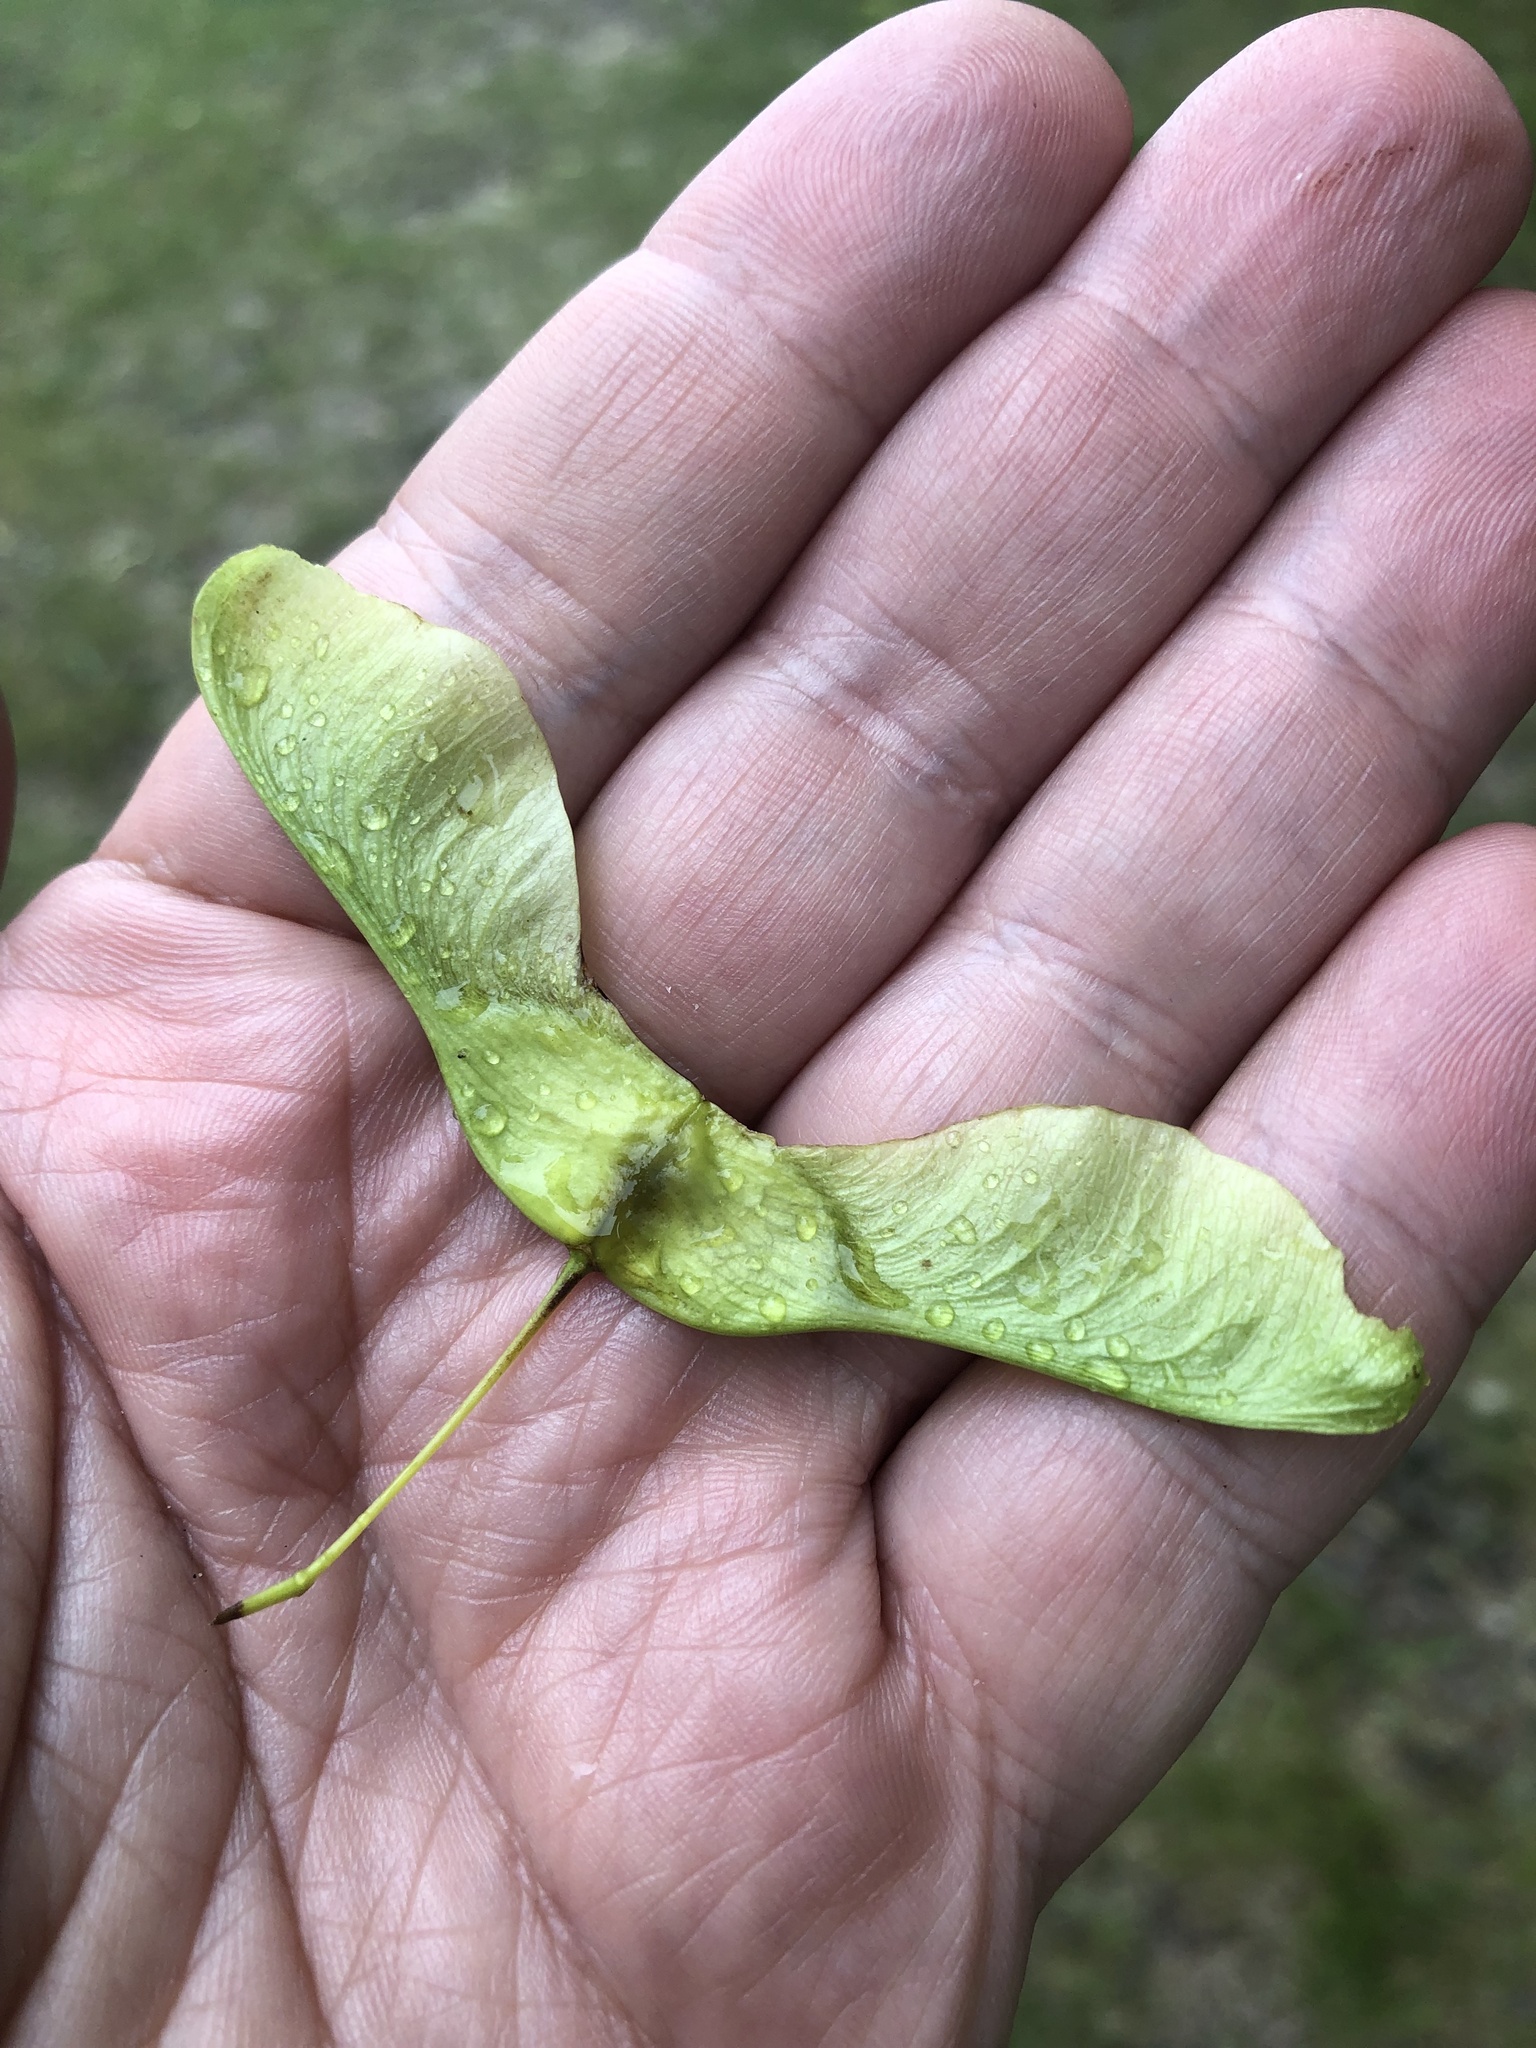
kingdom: Plantae
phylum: Tracheophyta
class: Magnoliopsida
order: Sapindales
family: Sapindaceae
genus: Acer
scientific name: Acer platanoides
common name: Norway maple
